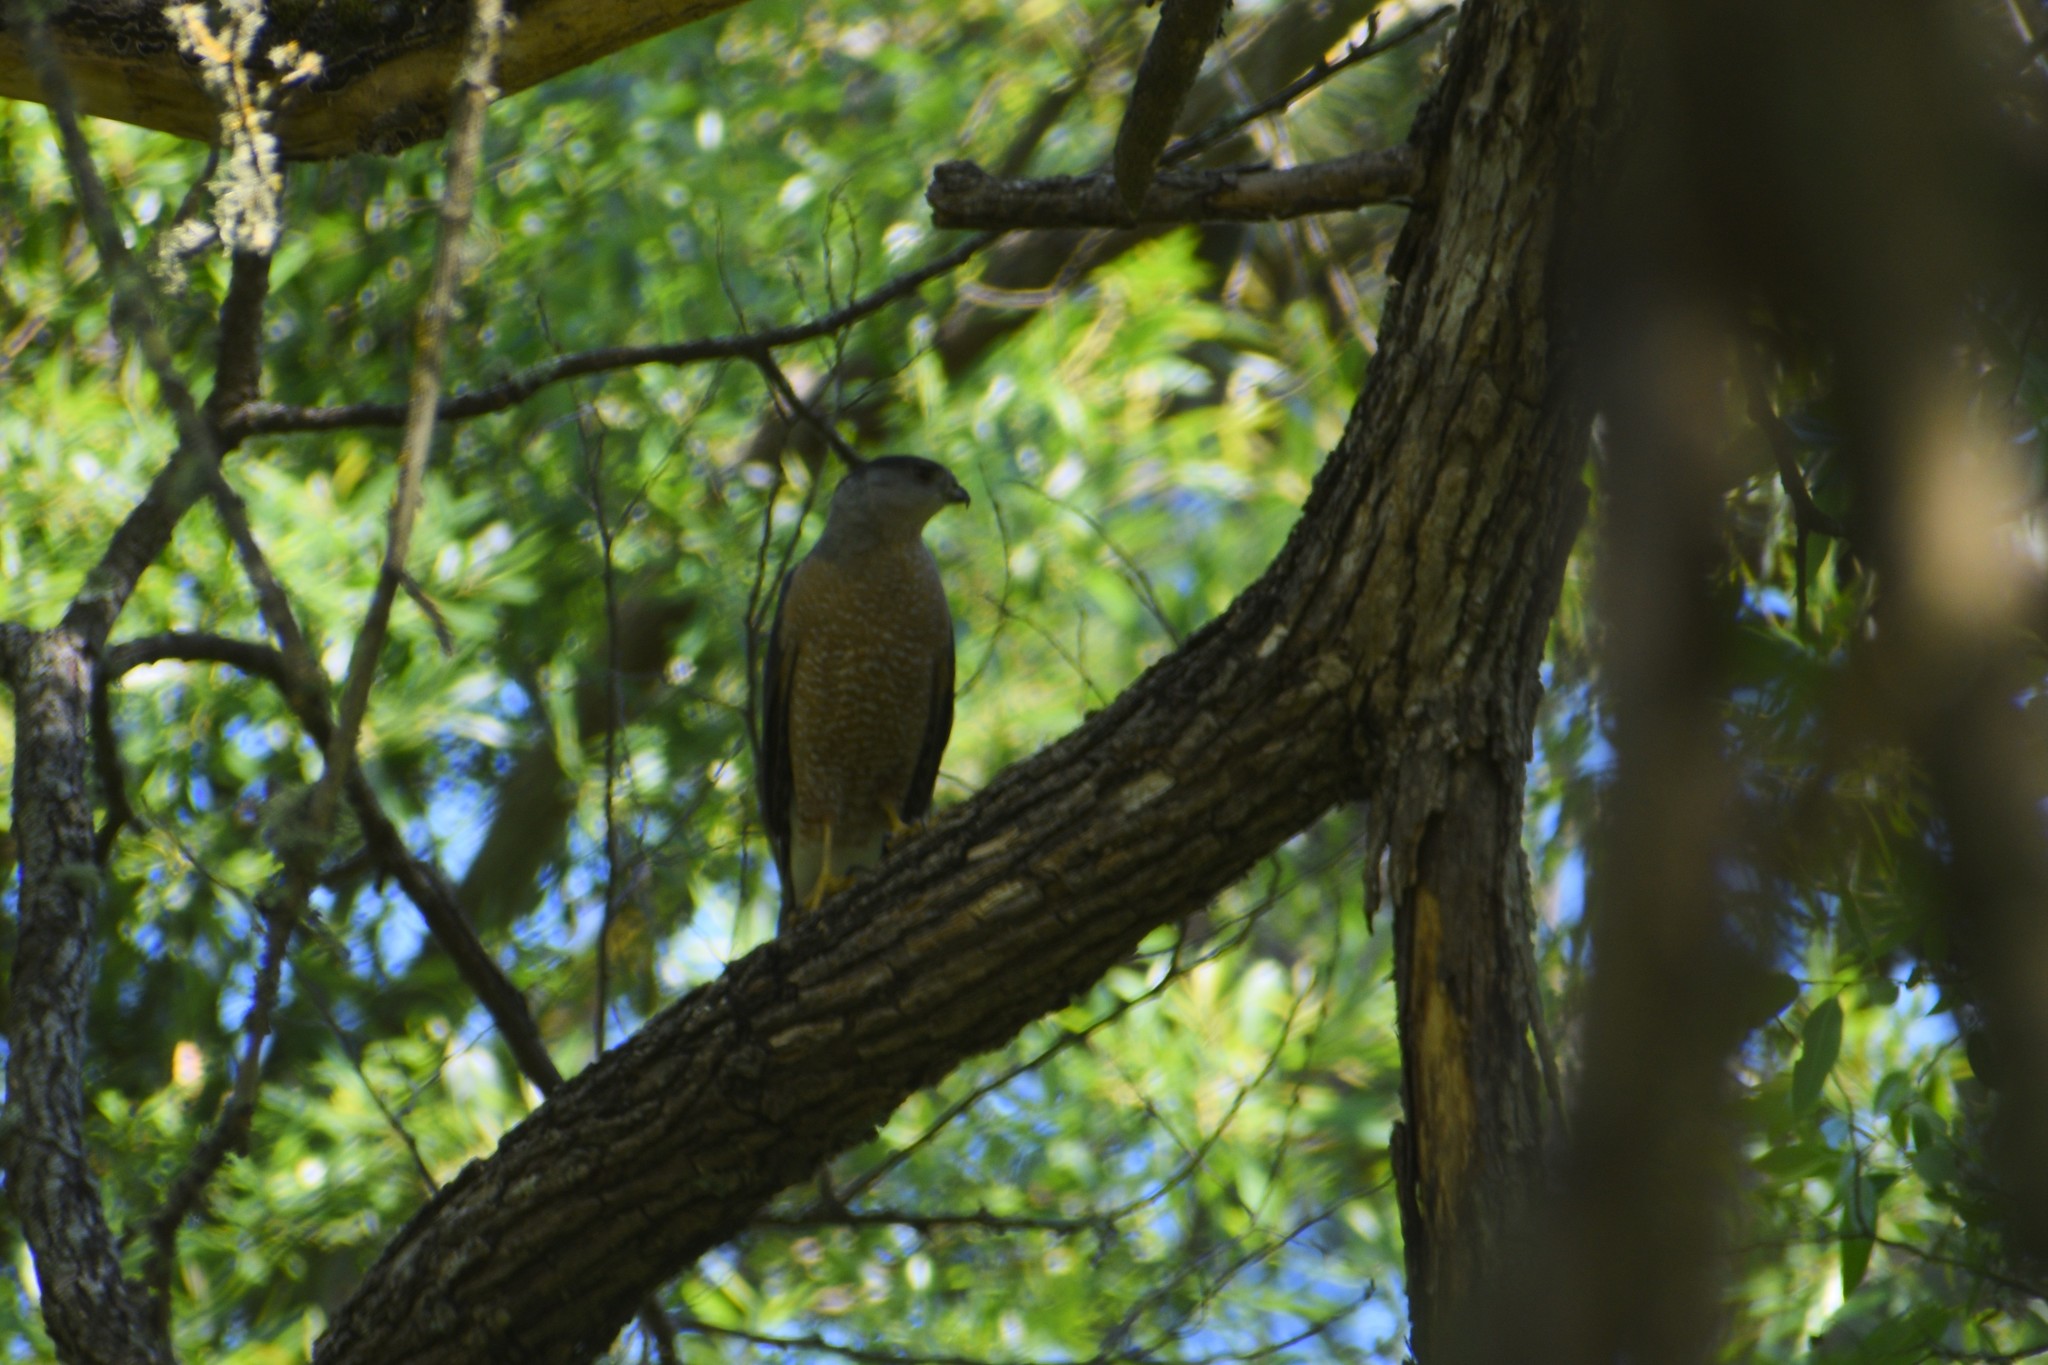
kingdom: Animalia
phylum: Chordata
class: Aves
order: Accipitriformes
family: Accipitridae
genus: Accipiter
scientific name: Accipiter cooperii
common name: Cooper's hawk
